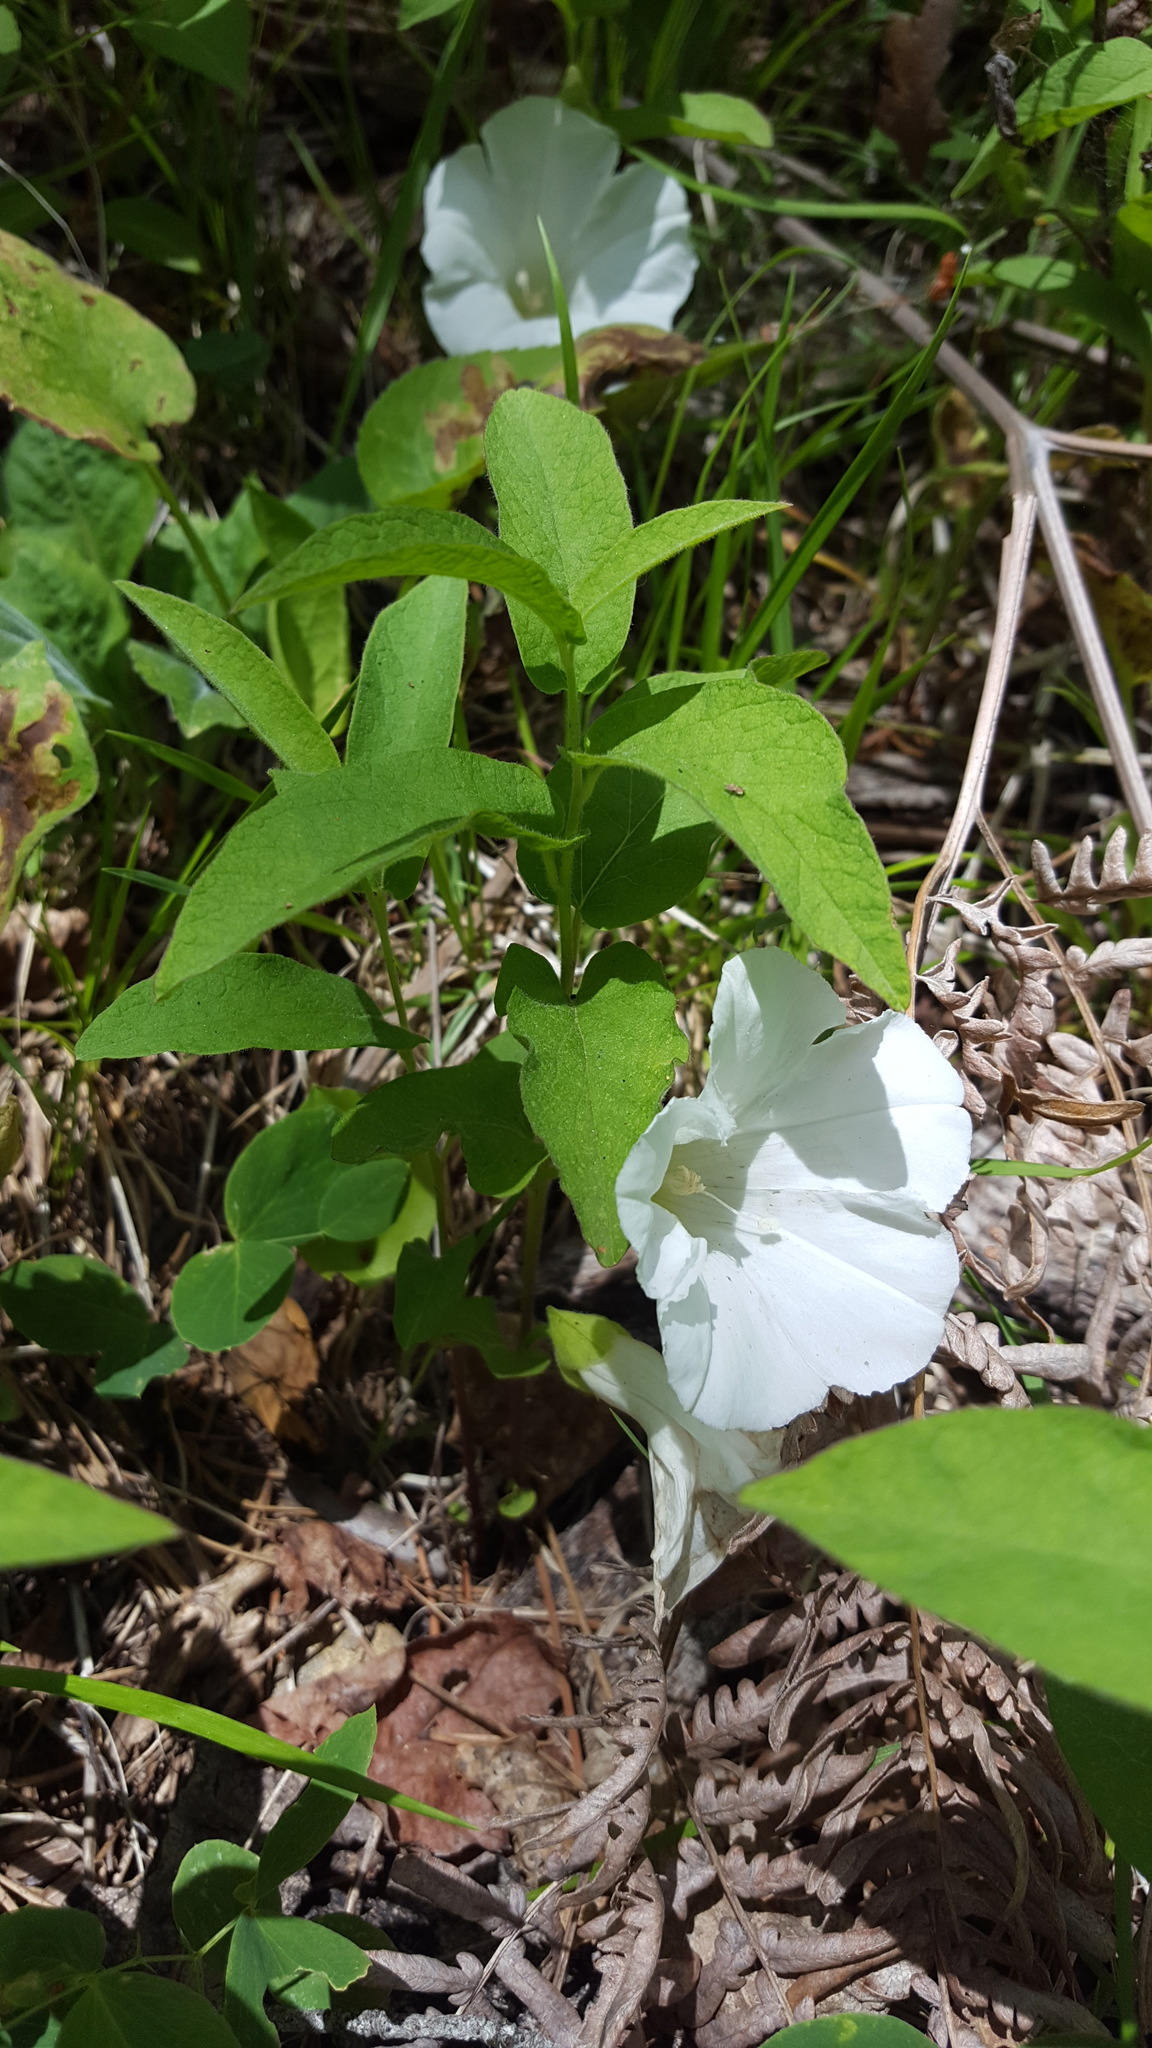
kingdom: Plantae
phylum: Tracheophyta
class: Magnoliopsida
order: Solanales
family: Convolvulaceae
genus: Calystegia
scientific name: Calystegia spithamaea
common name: Dwarf bindweed
